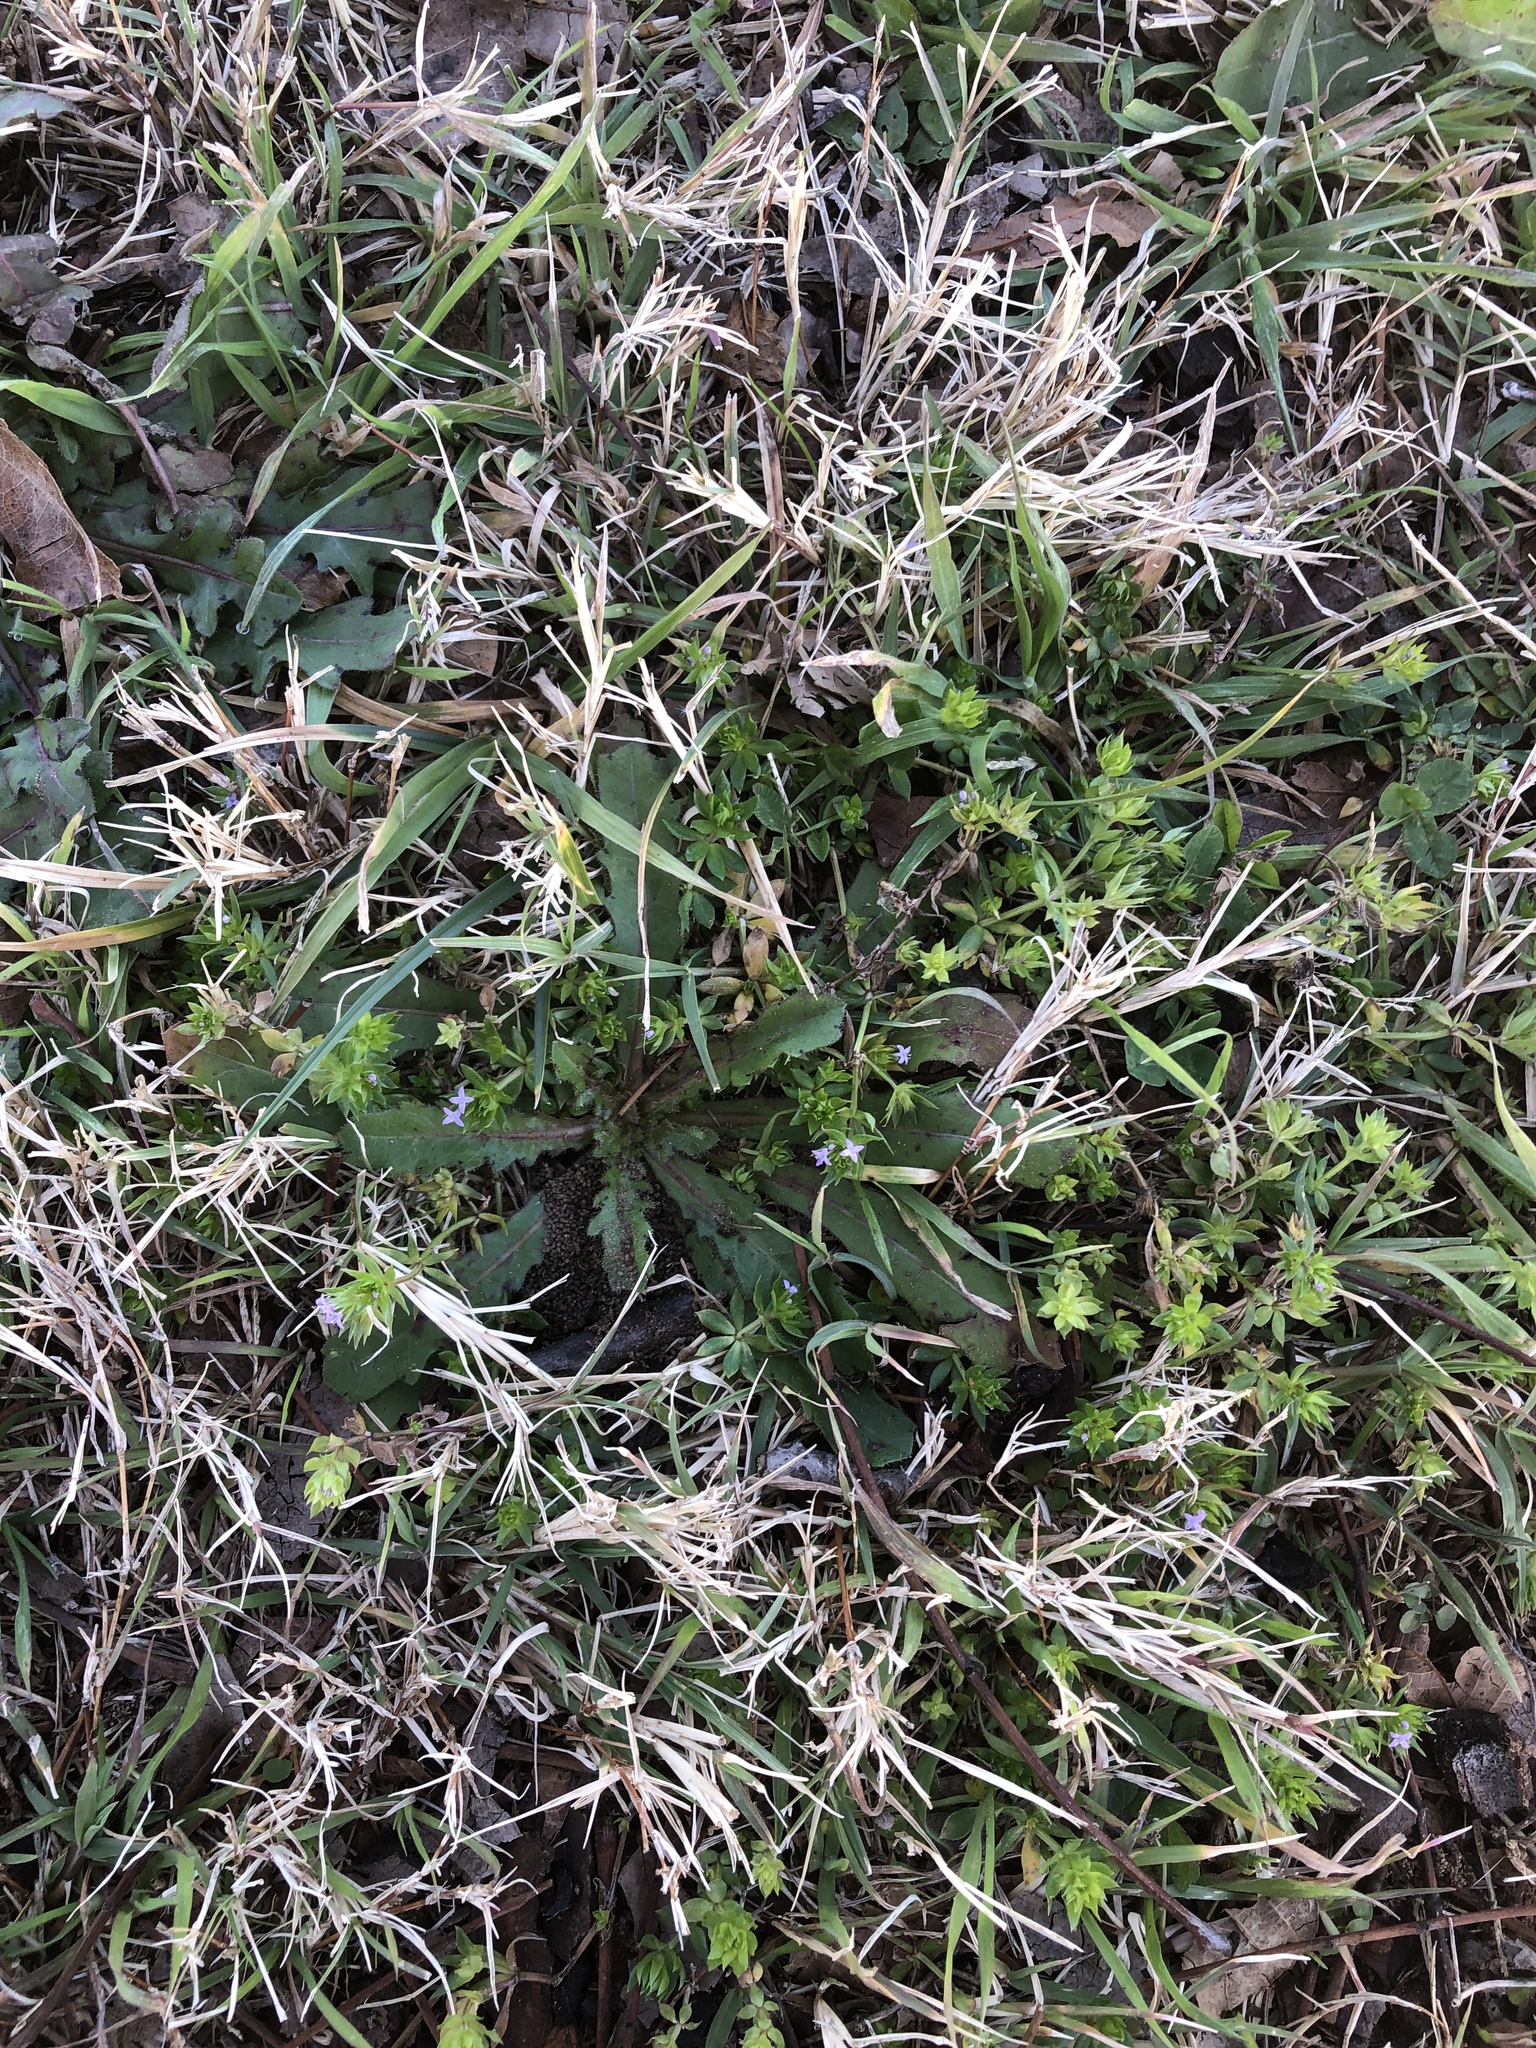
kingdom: Plantae
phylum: Tracheophyta
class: Magnoliopsida
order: Gentianales
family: Rubiaceae
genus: Sherardia
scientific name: Sherardia arvensis
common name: Field madder
